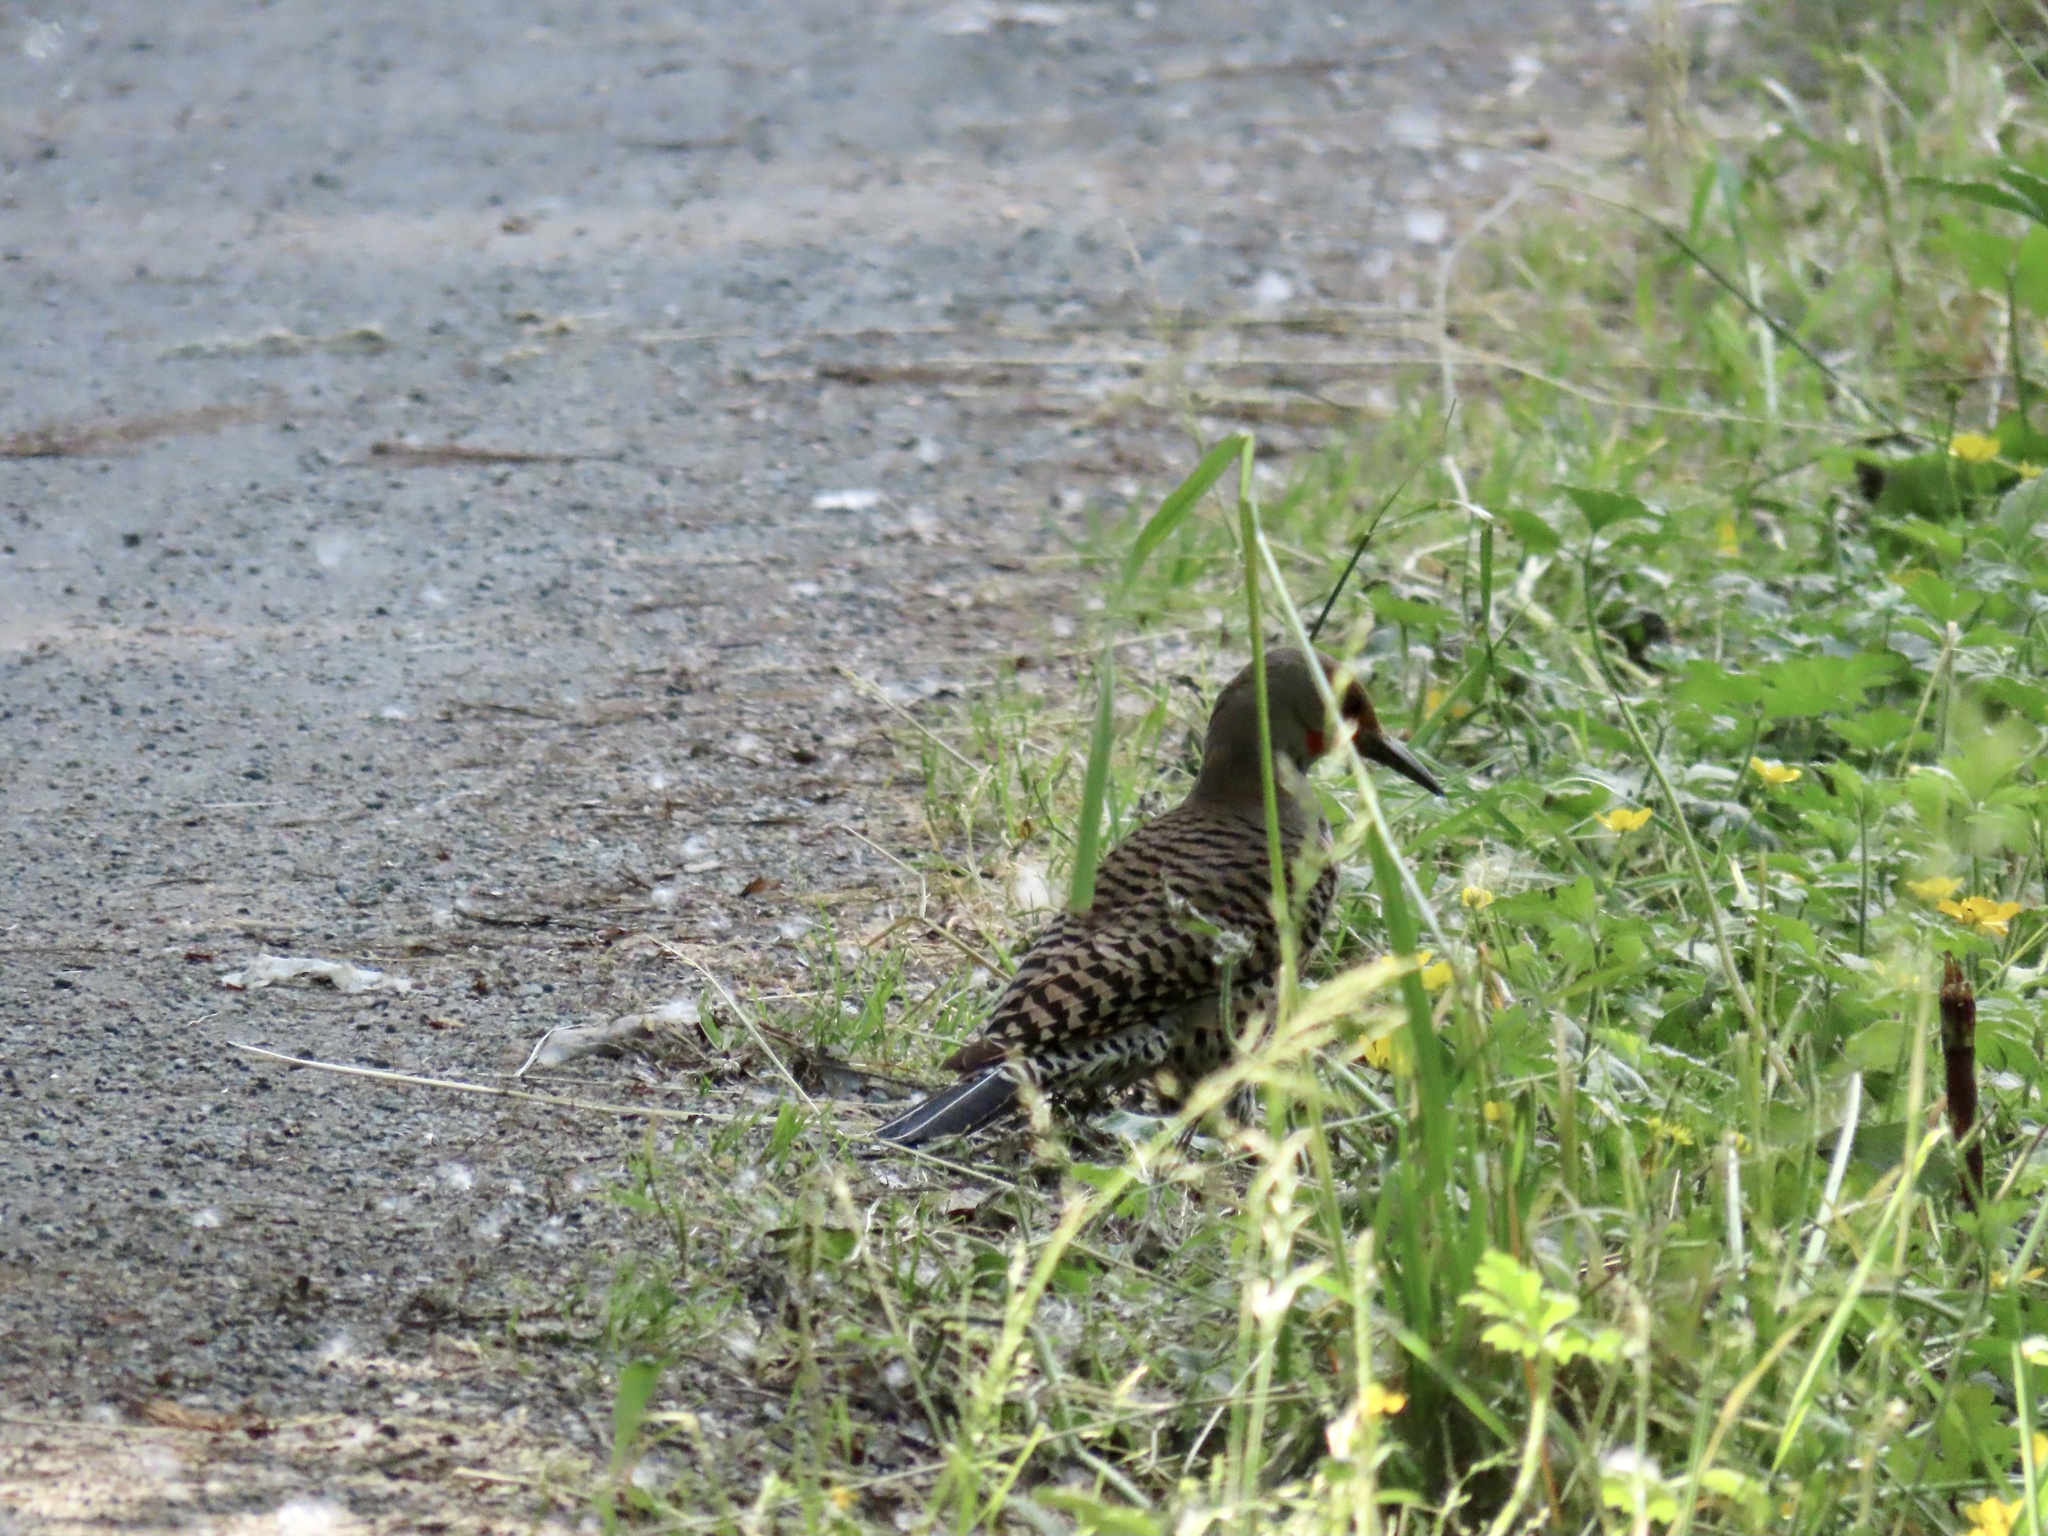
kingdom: Animalia
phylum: Chordata
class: Aves
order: Piciformes
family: Picidae
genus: Colaptes
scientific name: Colaptes auratus
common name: Northern flicker
